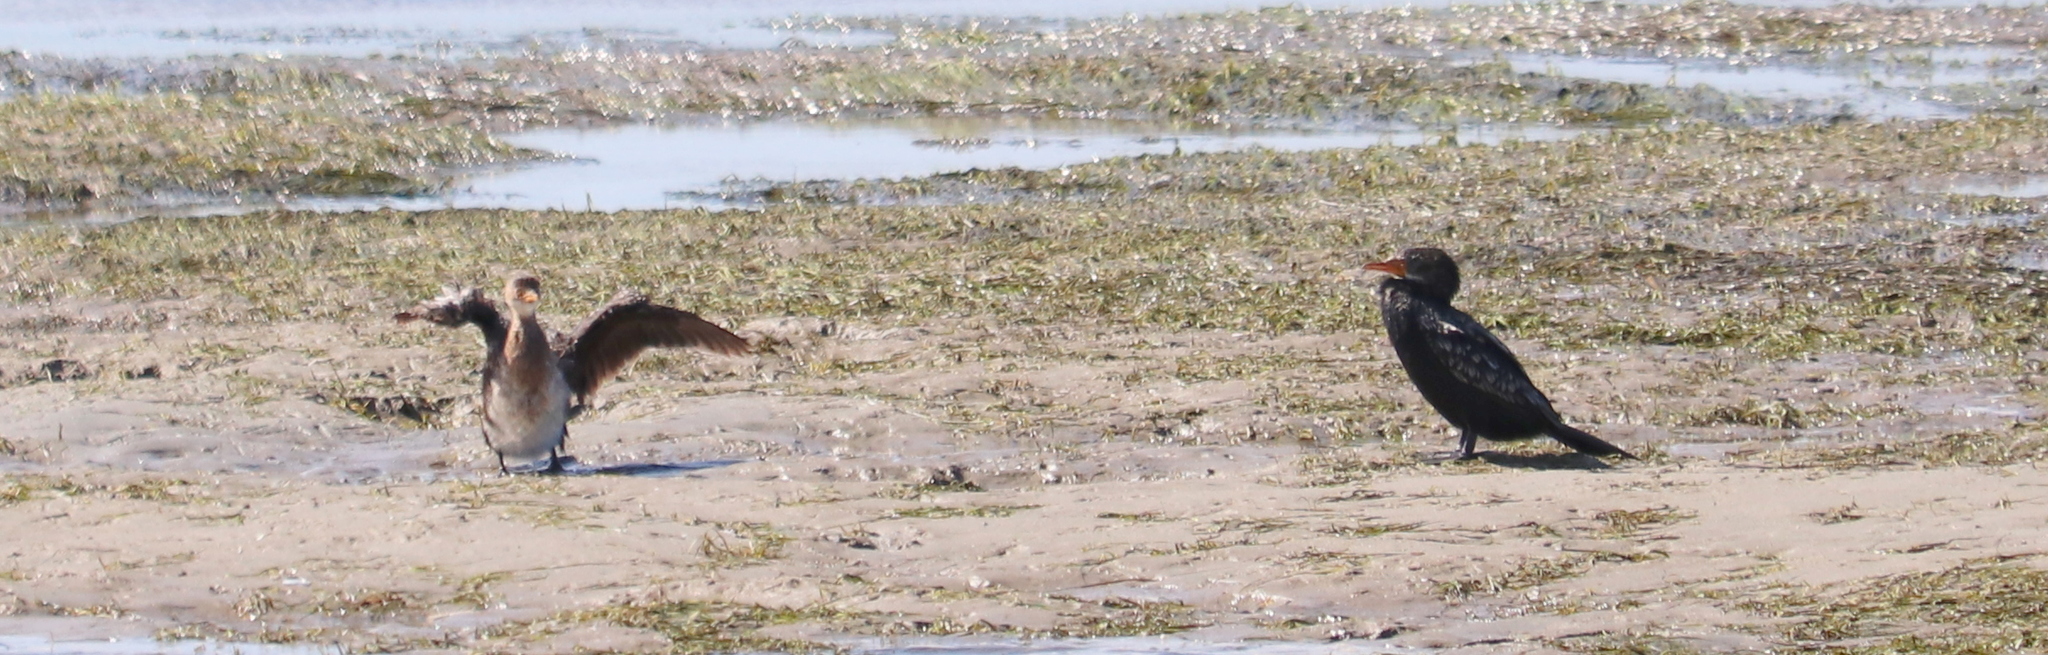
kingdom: Animalia
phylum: Chordata
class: Aves
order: Suliformes
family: Phalacrocoracidae
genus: Microcarbo
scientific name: Microcarbo africanus
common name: Long-tailed cormorant
